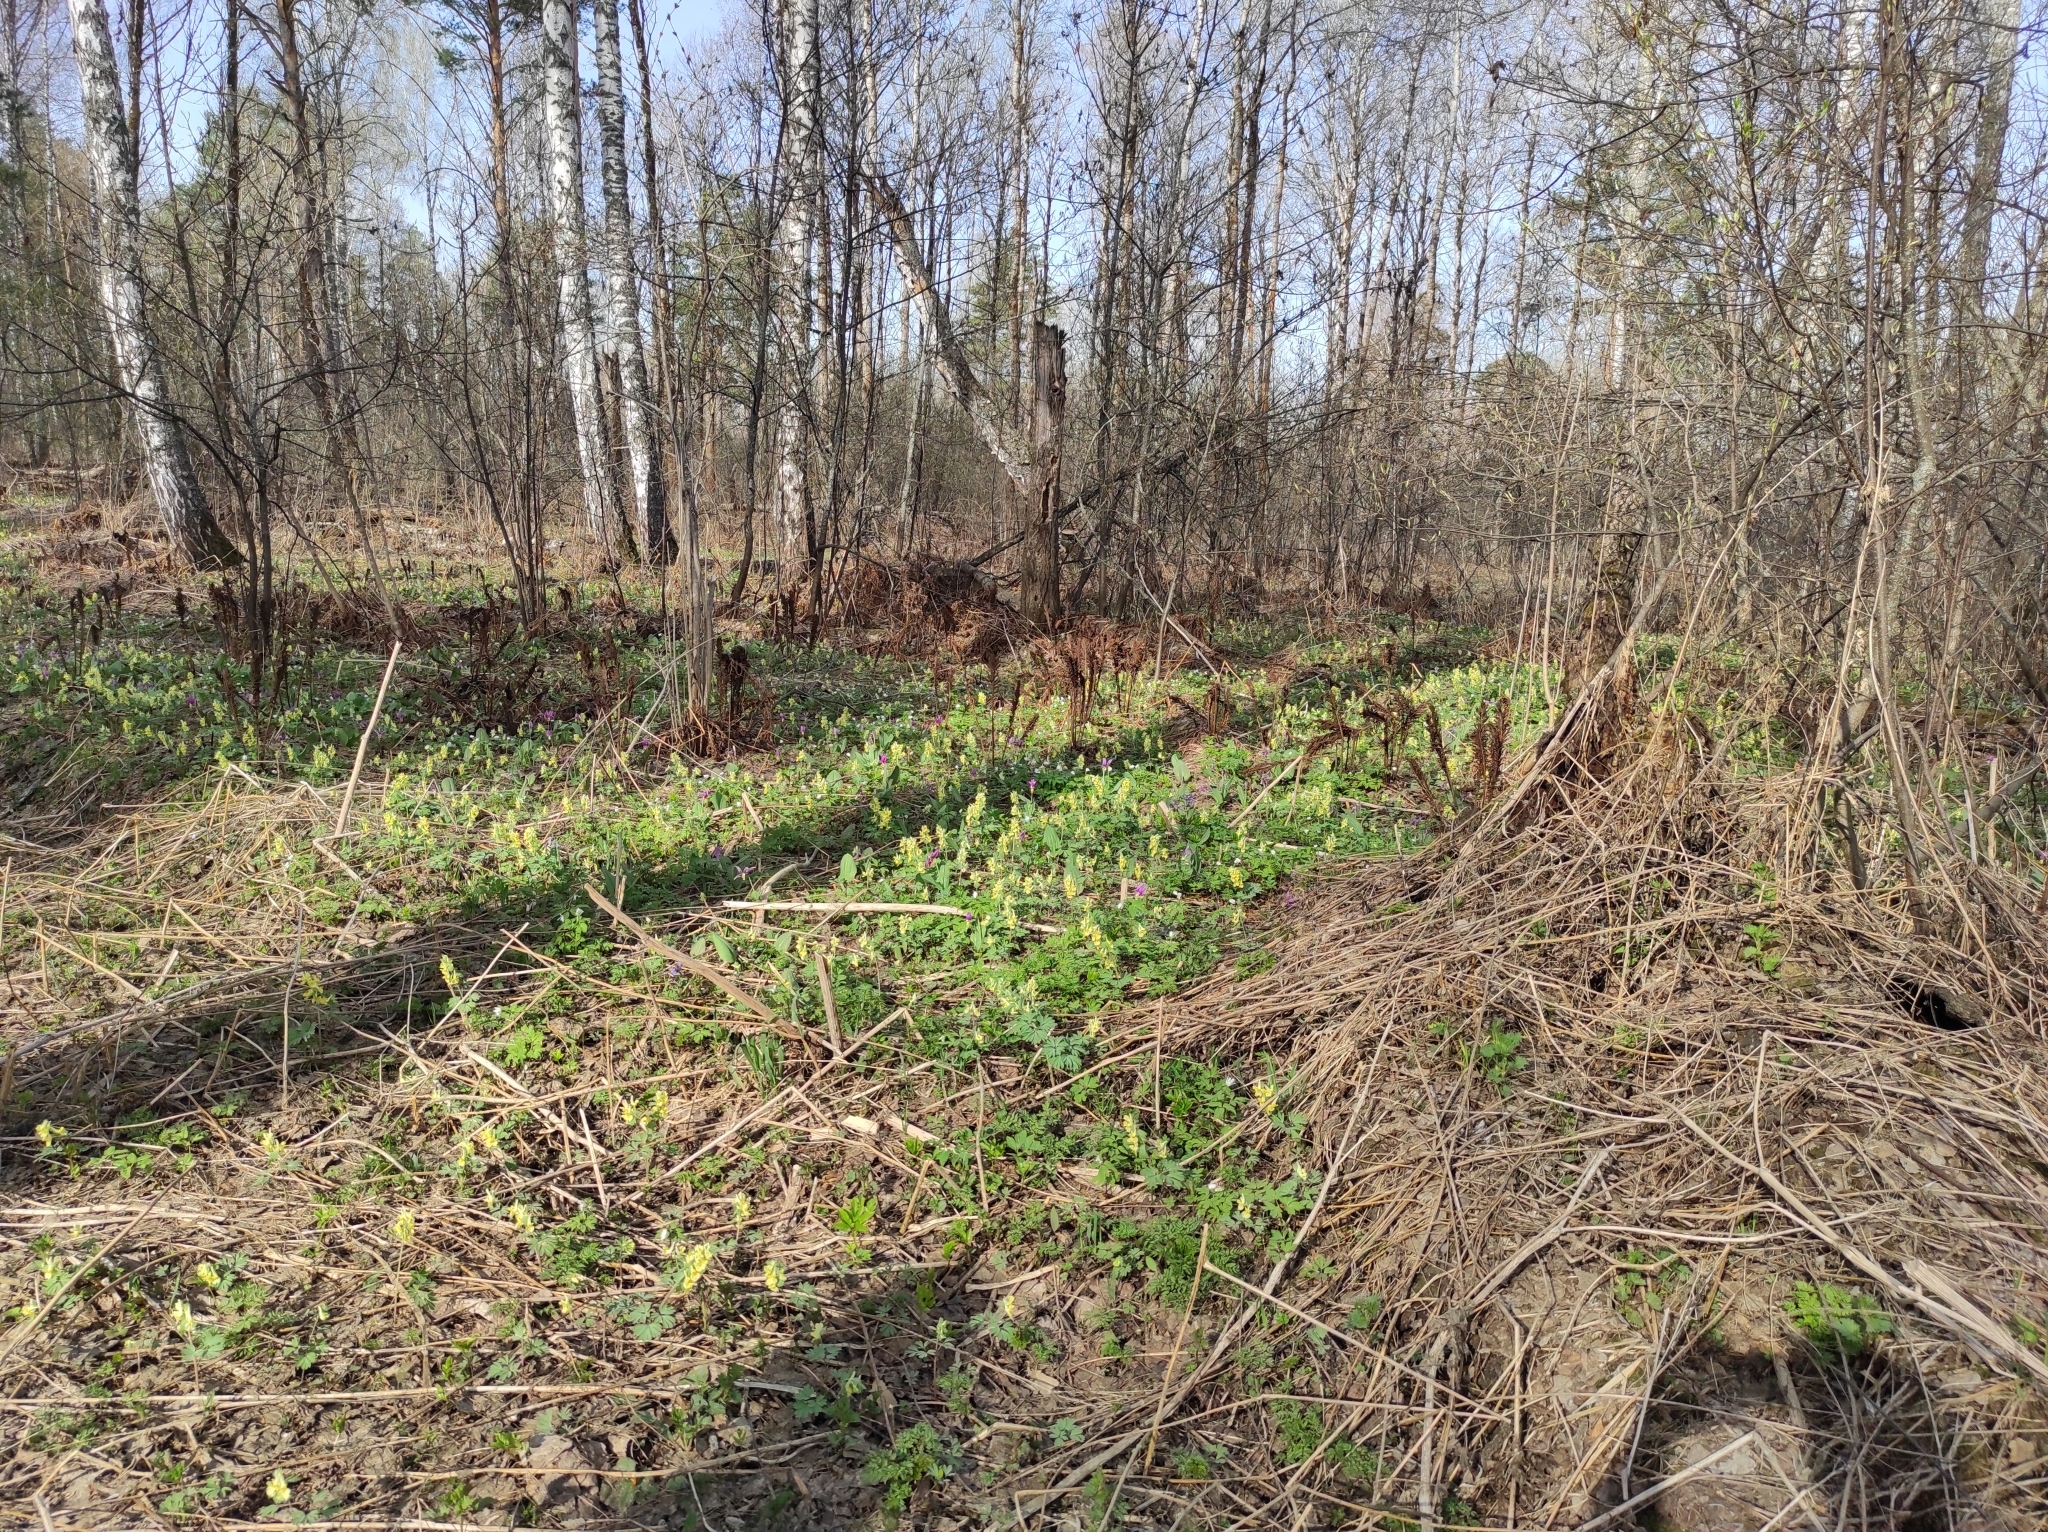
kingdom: Plantae
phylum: Tracheophyta
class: Liliopsida
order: Liliales
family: Liliaceae
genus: Erythronium
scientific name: Erythronium sibiricum
